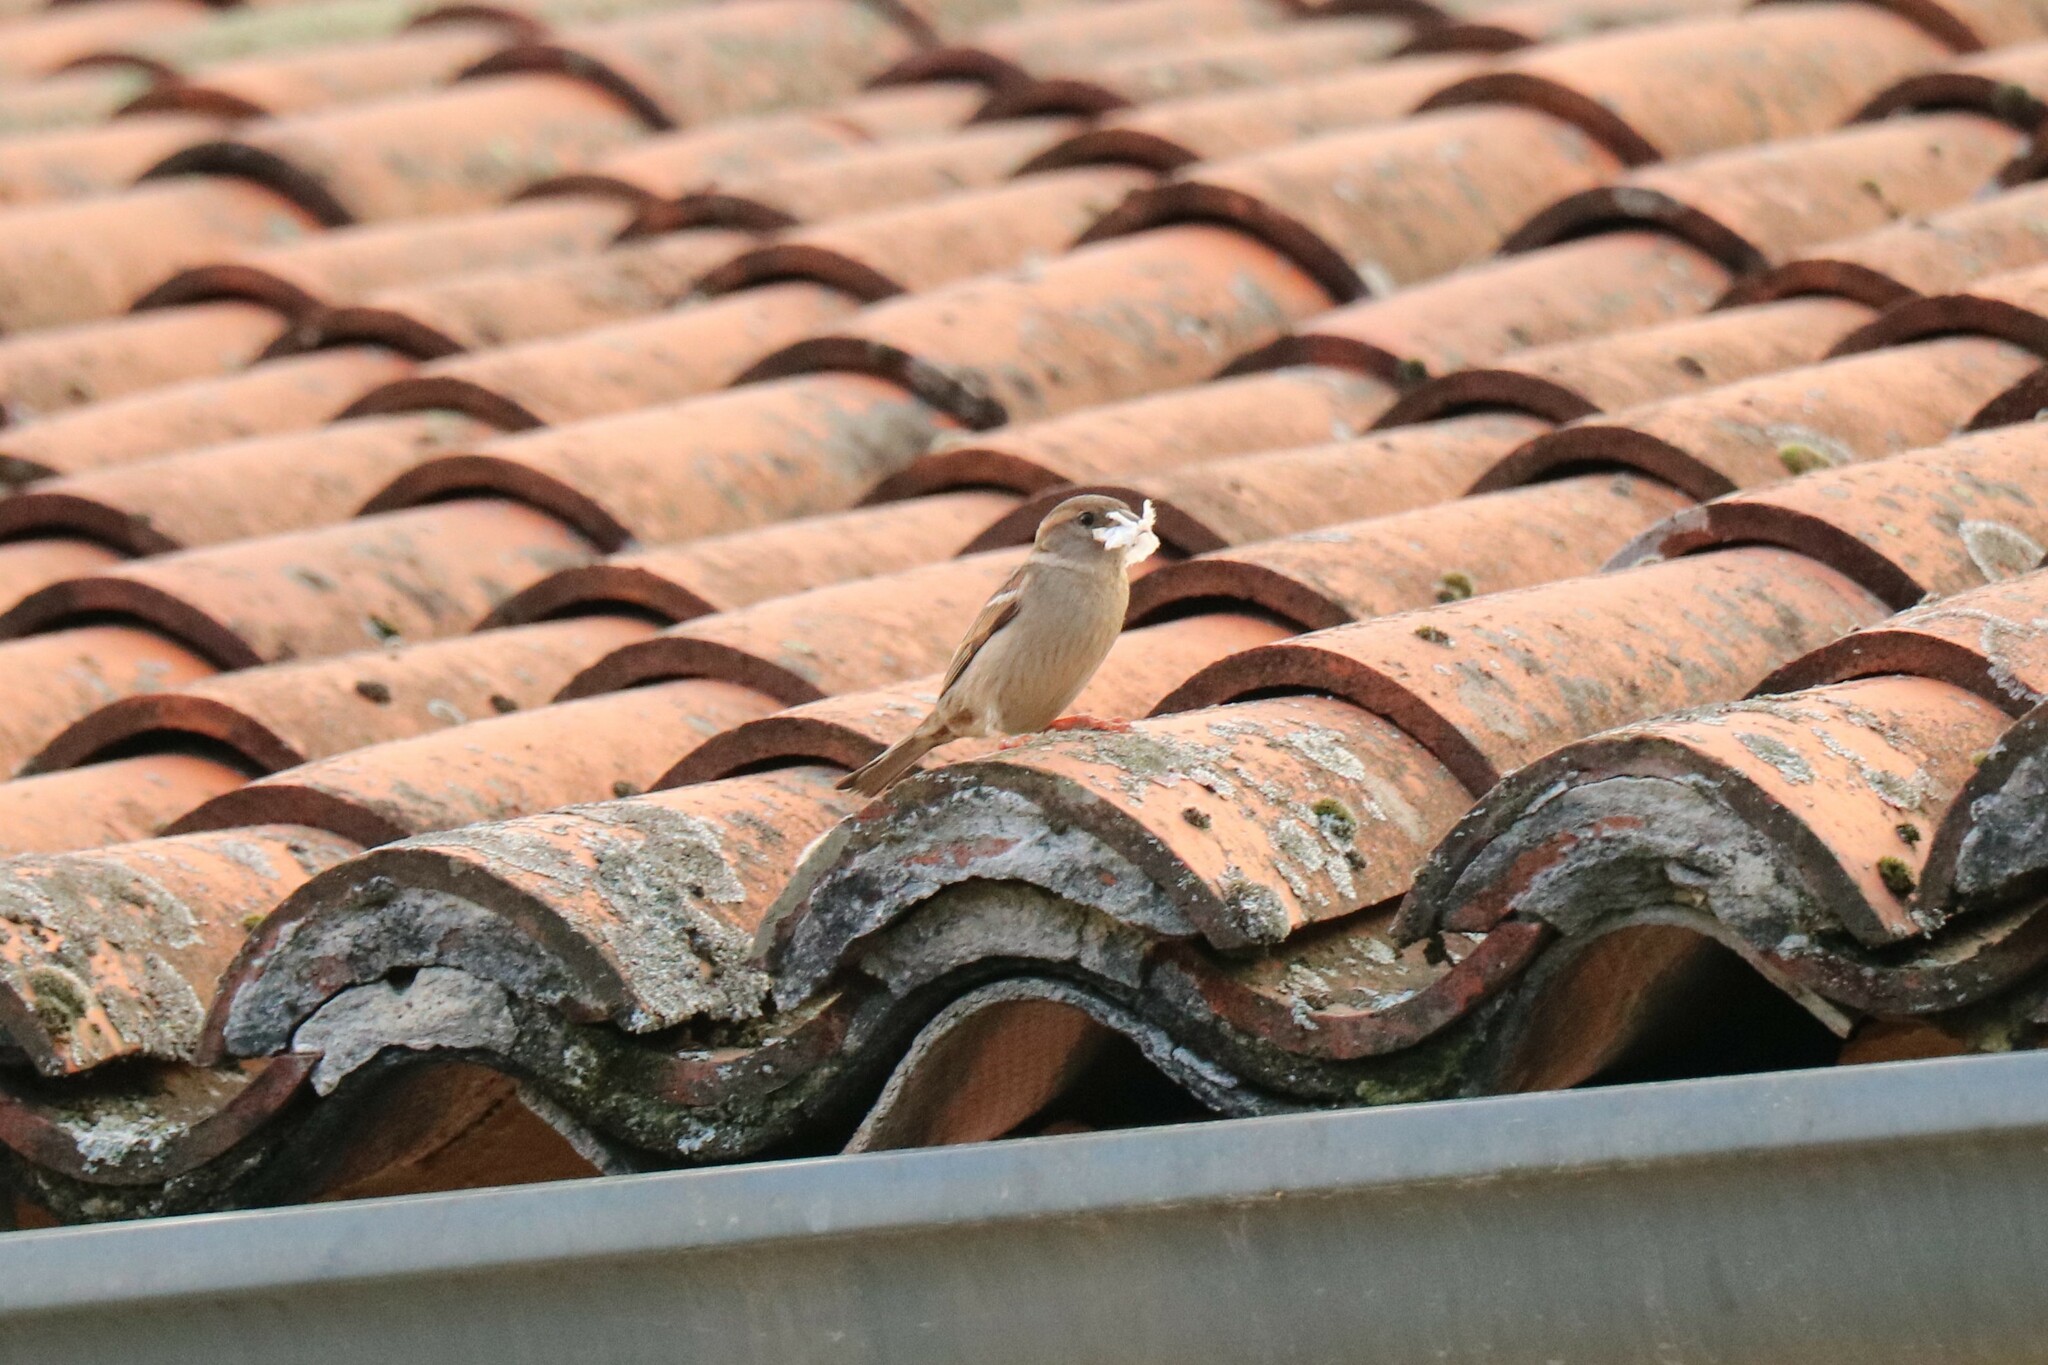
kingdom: Animalia
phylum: Chordata
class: Aves
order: Passeriformes
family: Passeridae
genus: Passer
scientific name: Passer domesticus
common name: House sparrow
